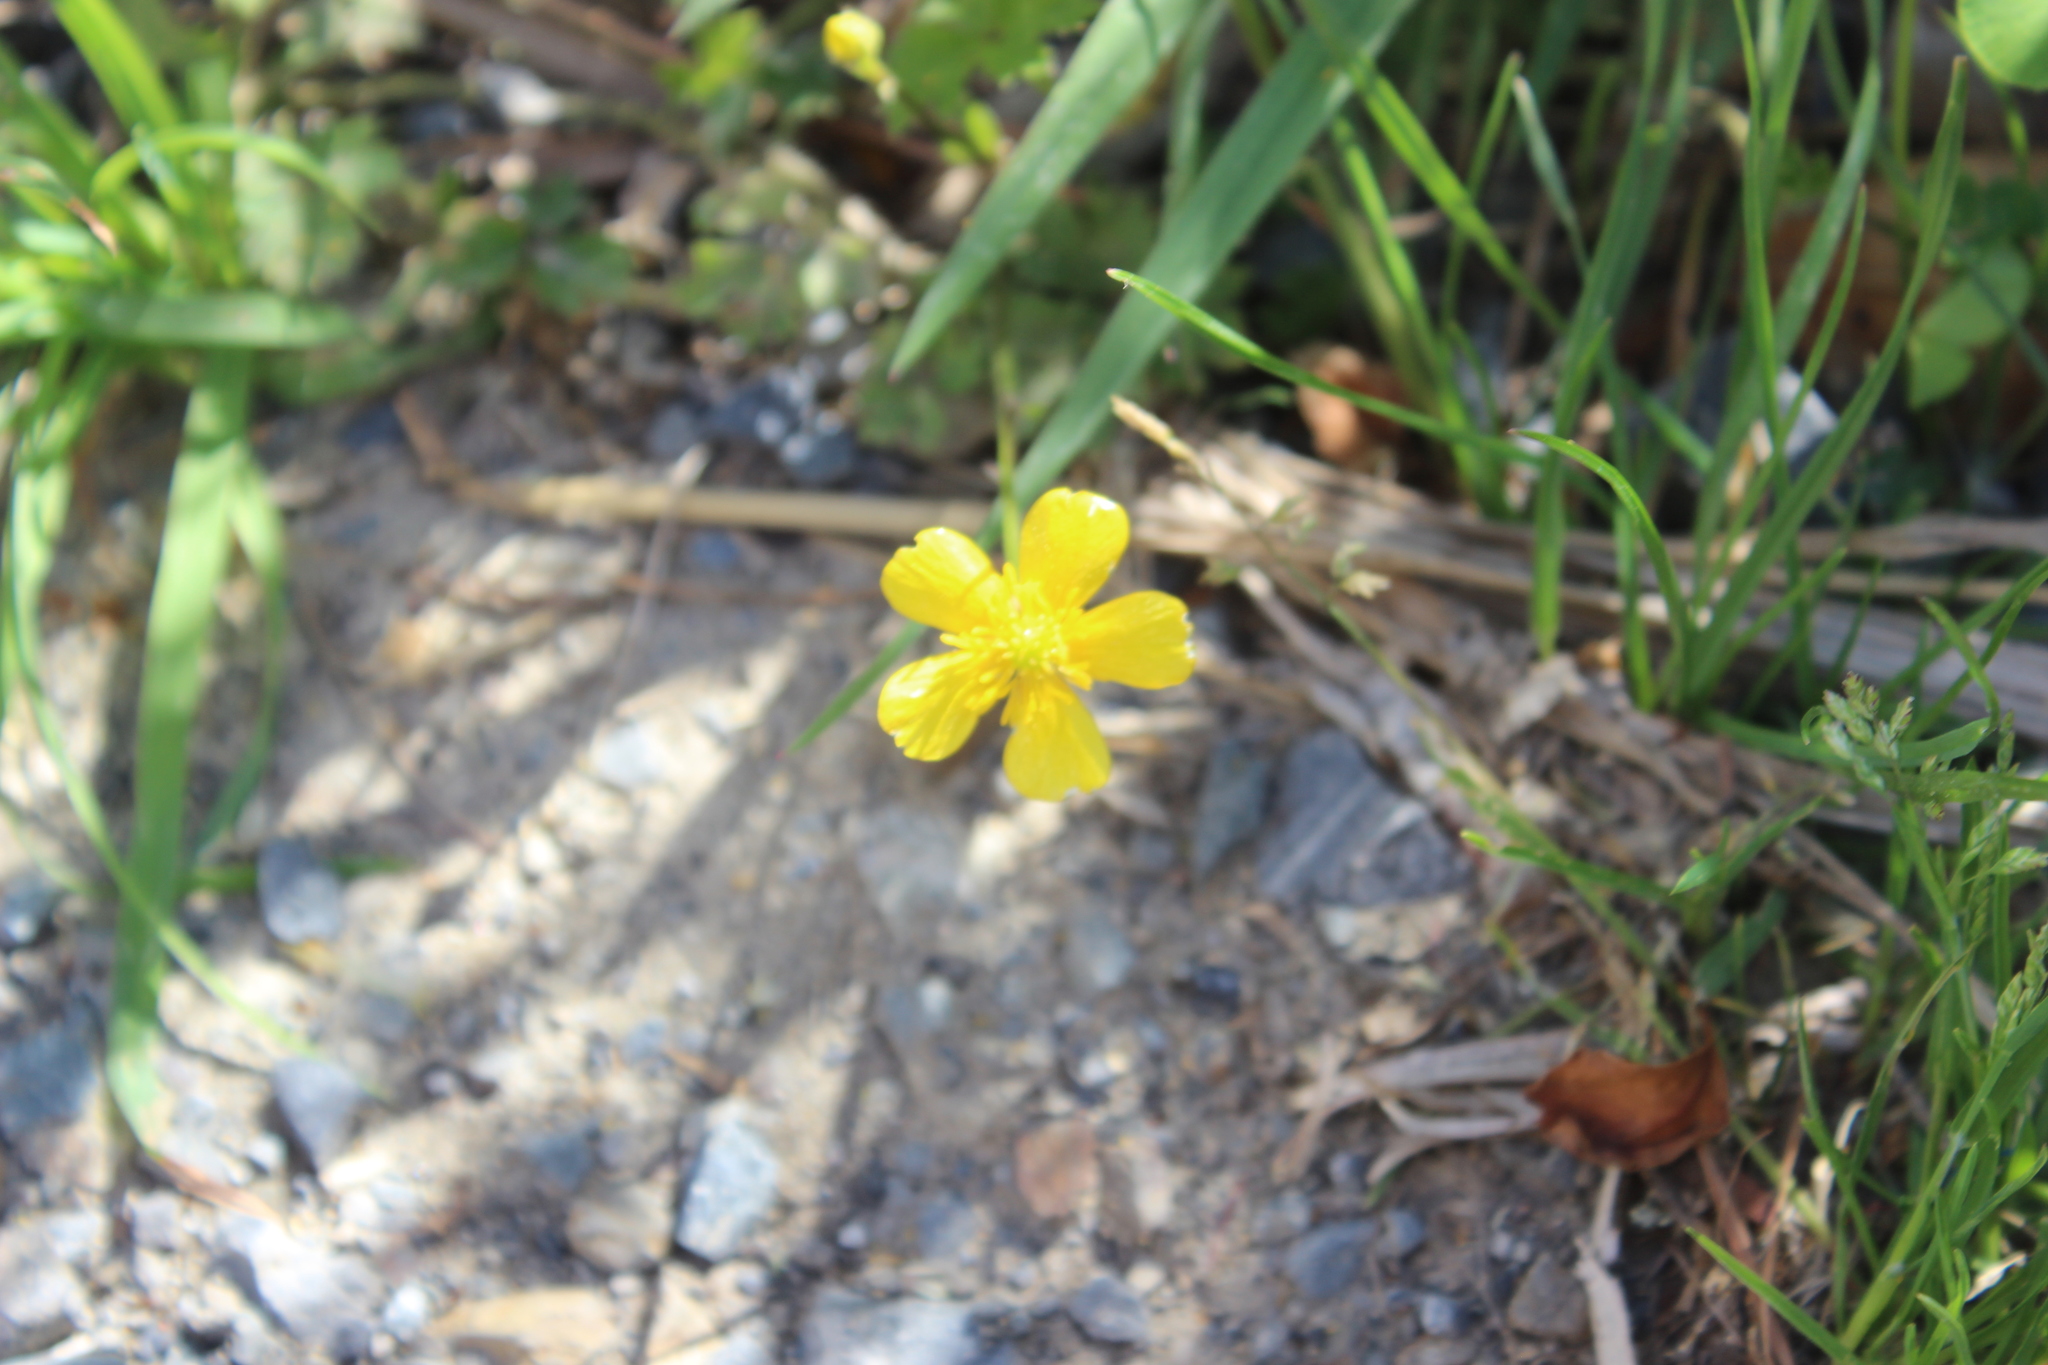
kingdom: Plantae
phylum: Tracheophyta
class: Magnoliopsida
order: Ranunculales
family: Ranunculaceae
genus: Ranunculus
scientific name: Ranunculus repens
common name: Creeping buttercup
